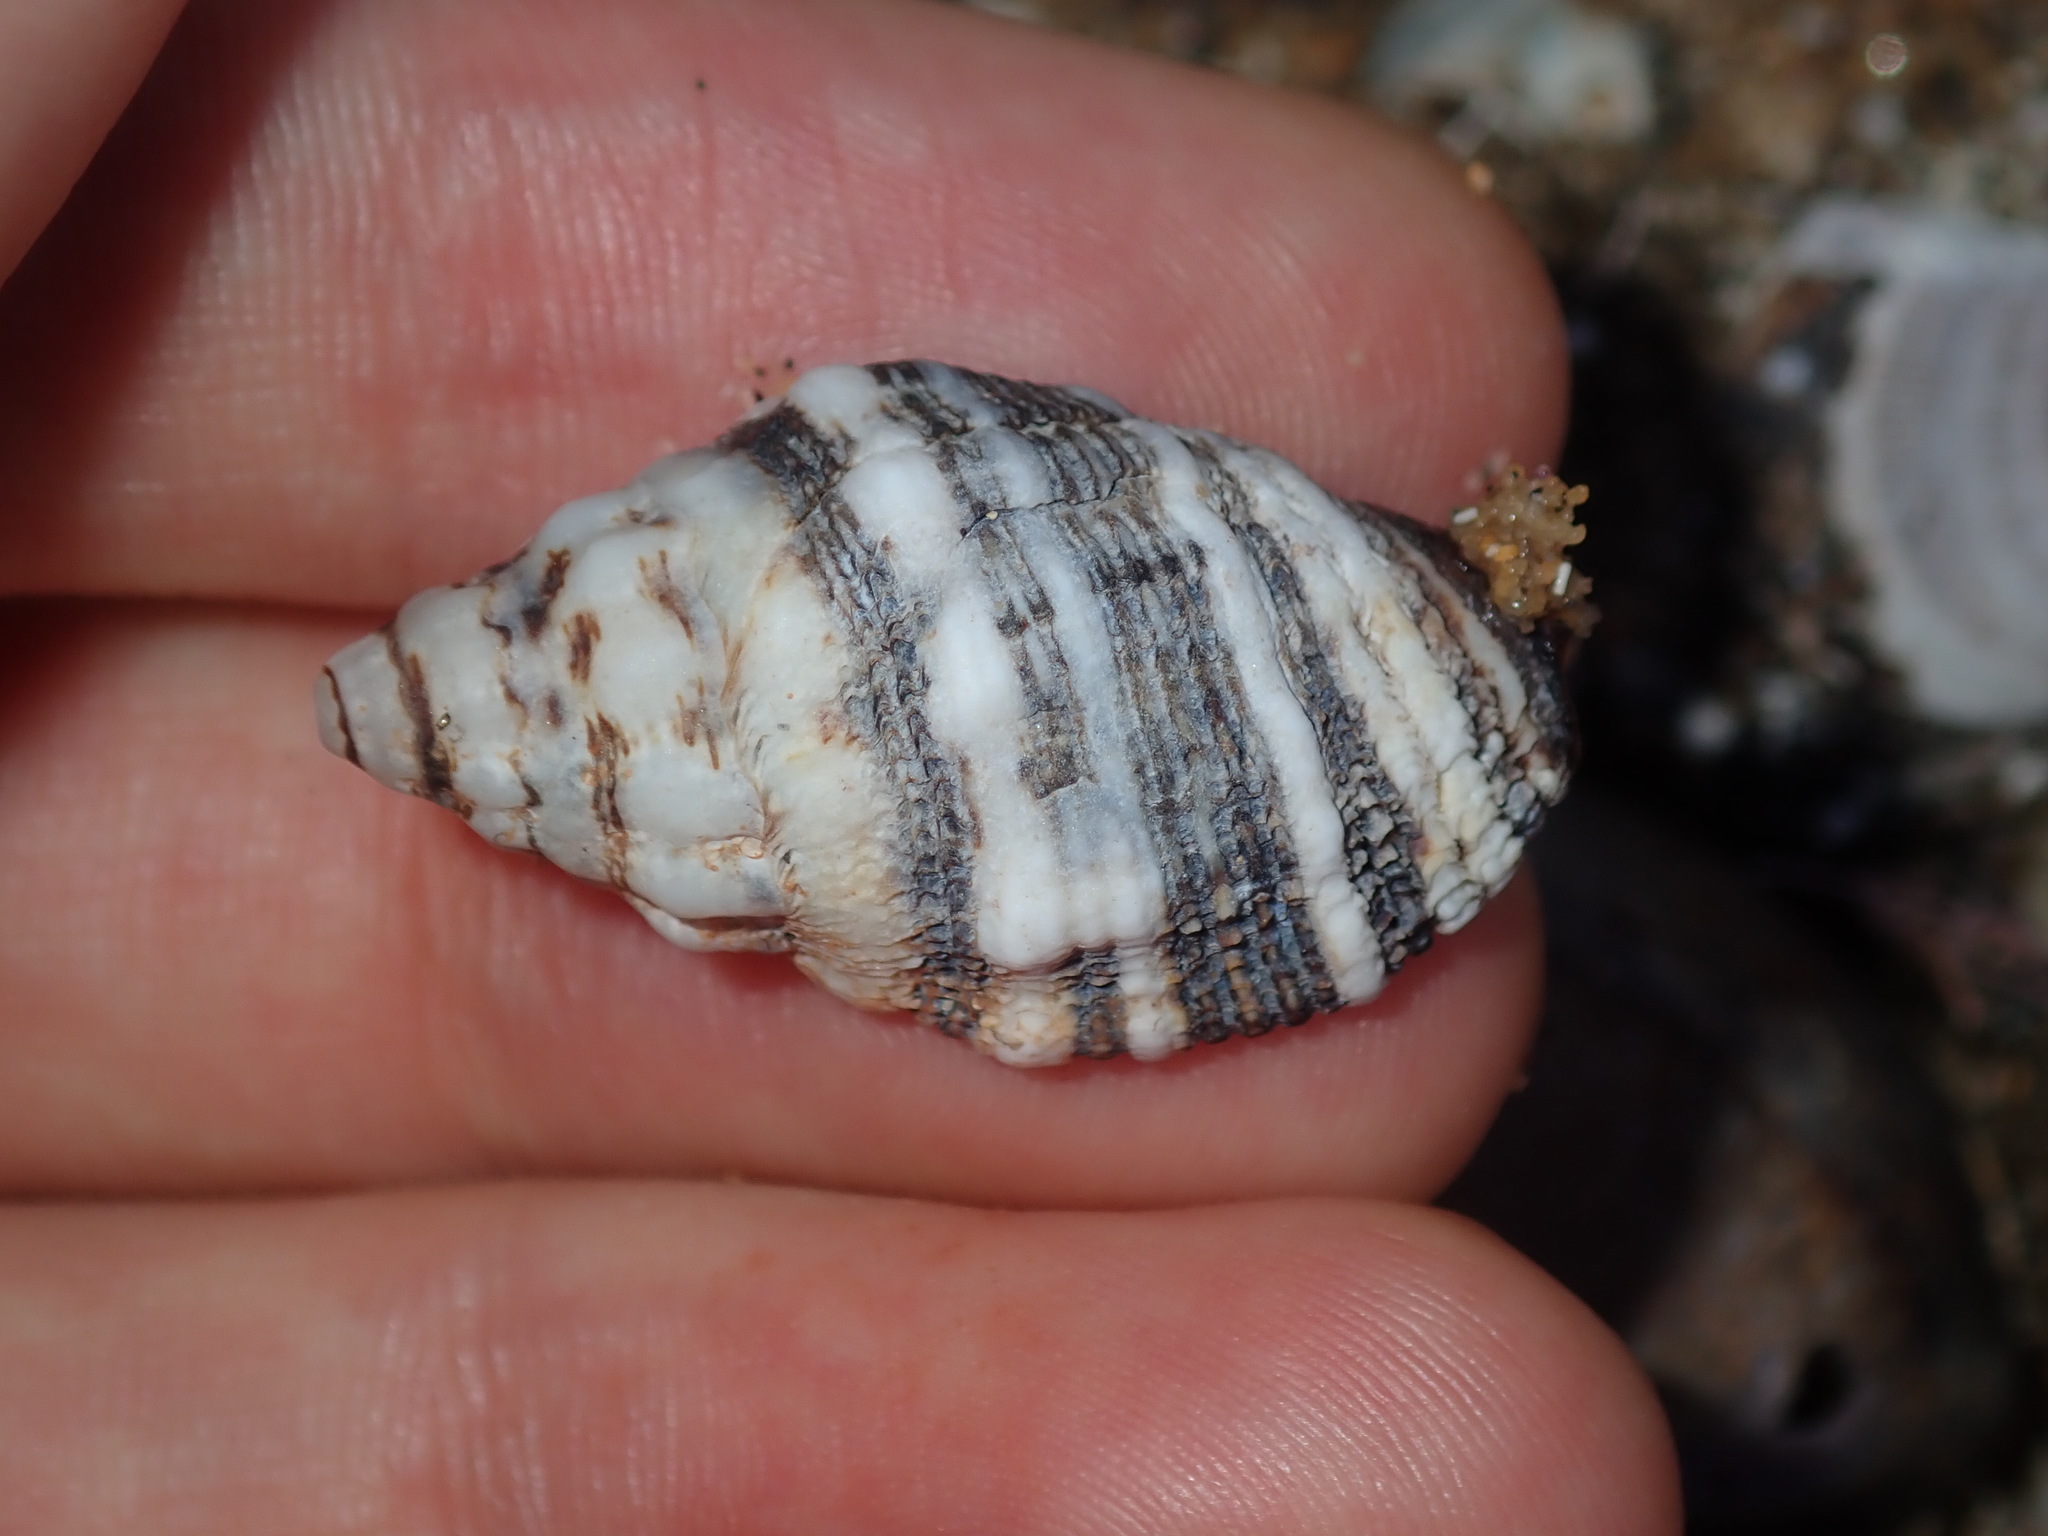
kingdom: Animalia
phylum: Mollusca
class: Gastropoda
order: Neogastropoda
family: Muricidae
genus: Cronia
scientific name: Cronia aurantiaca
